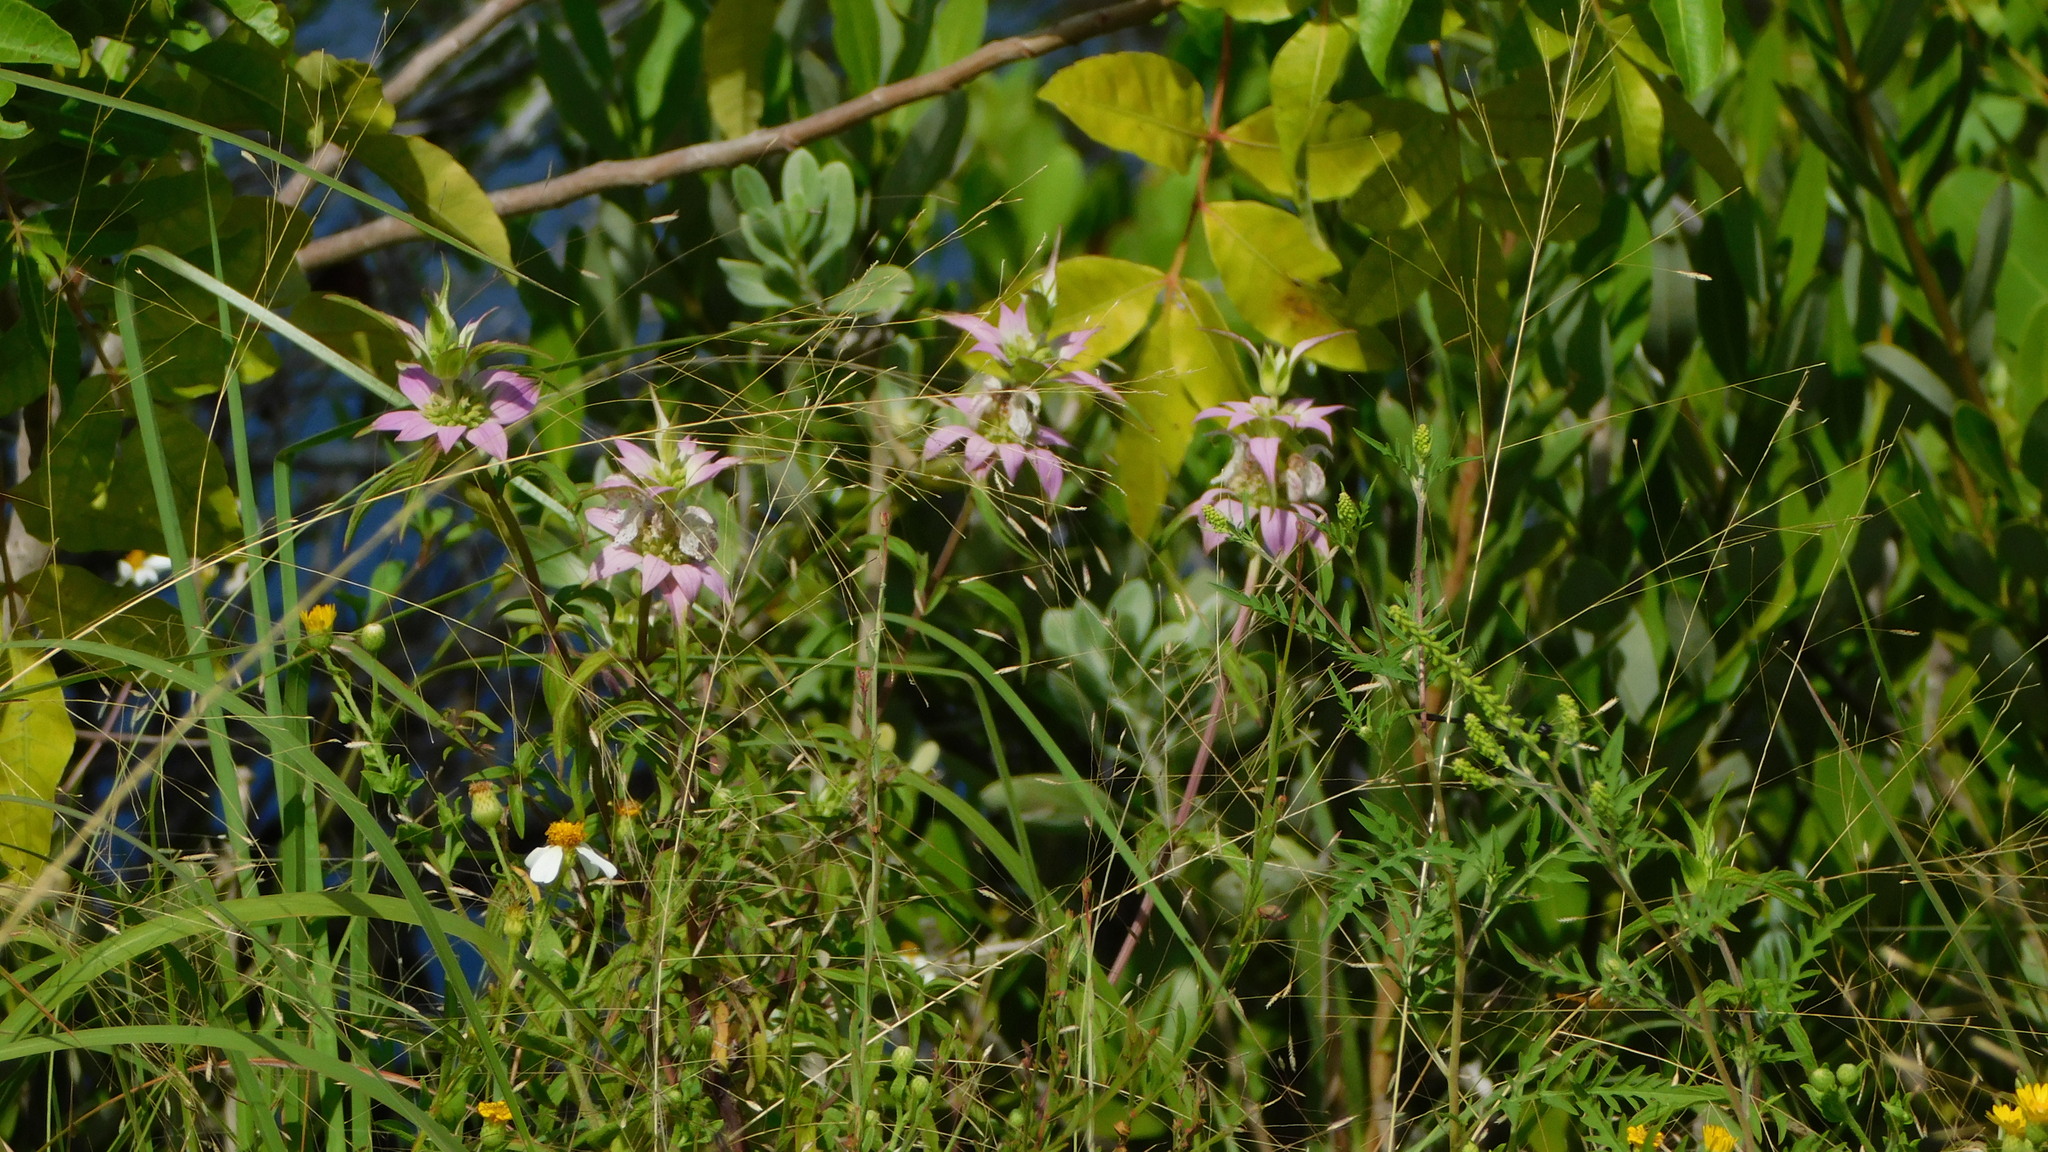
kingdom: Plantae
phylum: Tracheophyta
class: Magnoliopsida
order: Lamiales
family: Lamiaceae
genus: Monarda
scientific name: Monarda punctata
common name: Dotted monarda
